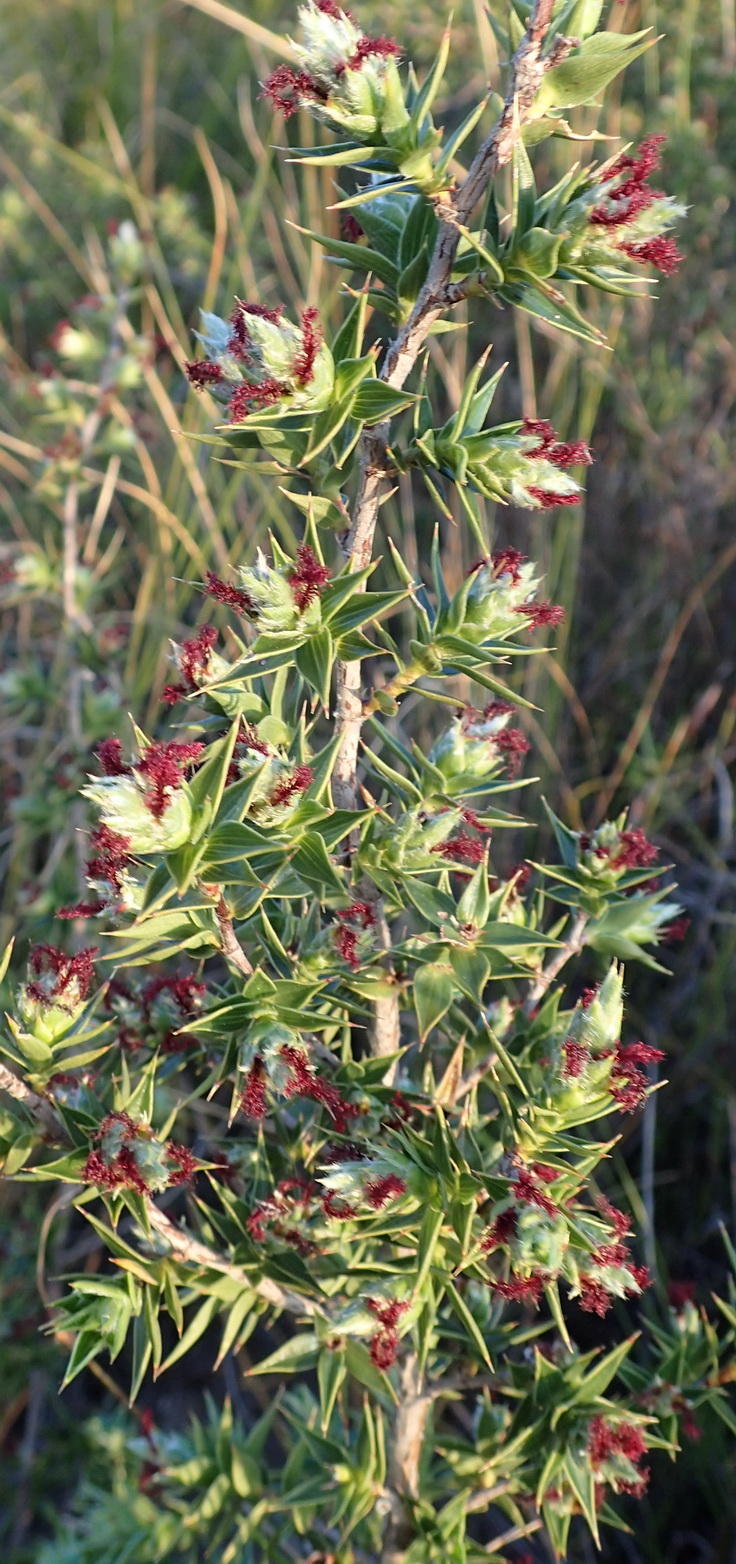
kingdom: Plantae
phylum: Tracheophyta
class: Magnoliopsida
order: Rosales
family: Rosaceae
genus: Cliffortia
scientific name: Cliffortia ruscifolia
